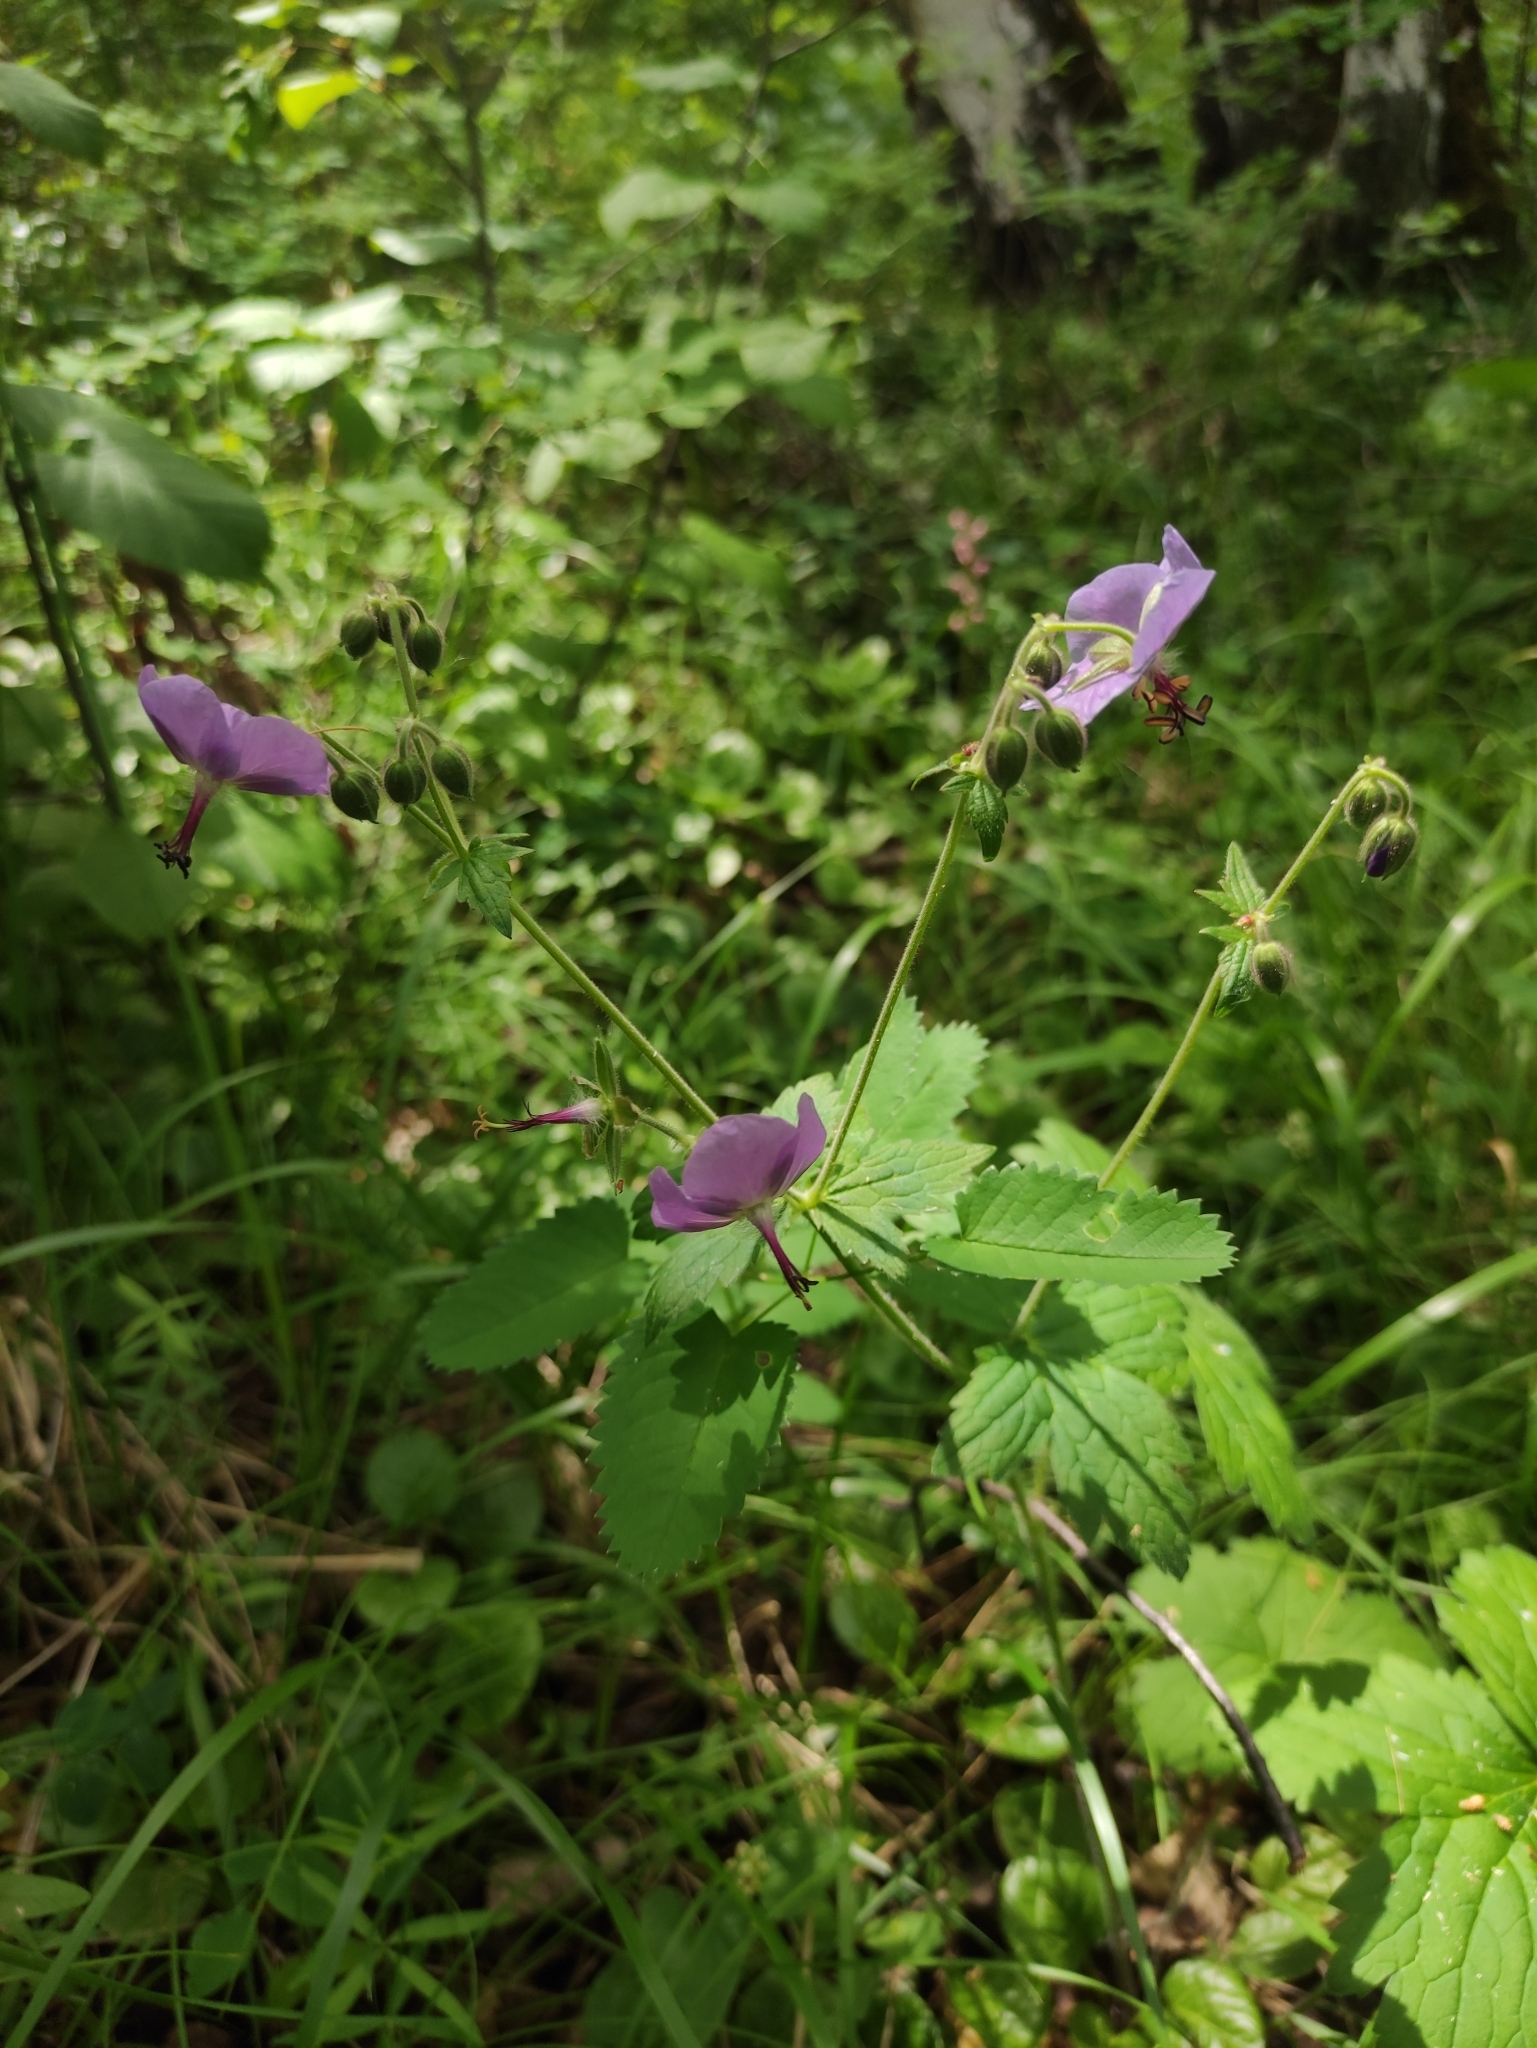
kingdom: Plantae
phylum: Tracheophyta
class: Magnoliopsida
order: Geraniales
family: Geraniaceae
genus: Geranium
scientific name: Geranium platyanthum
